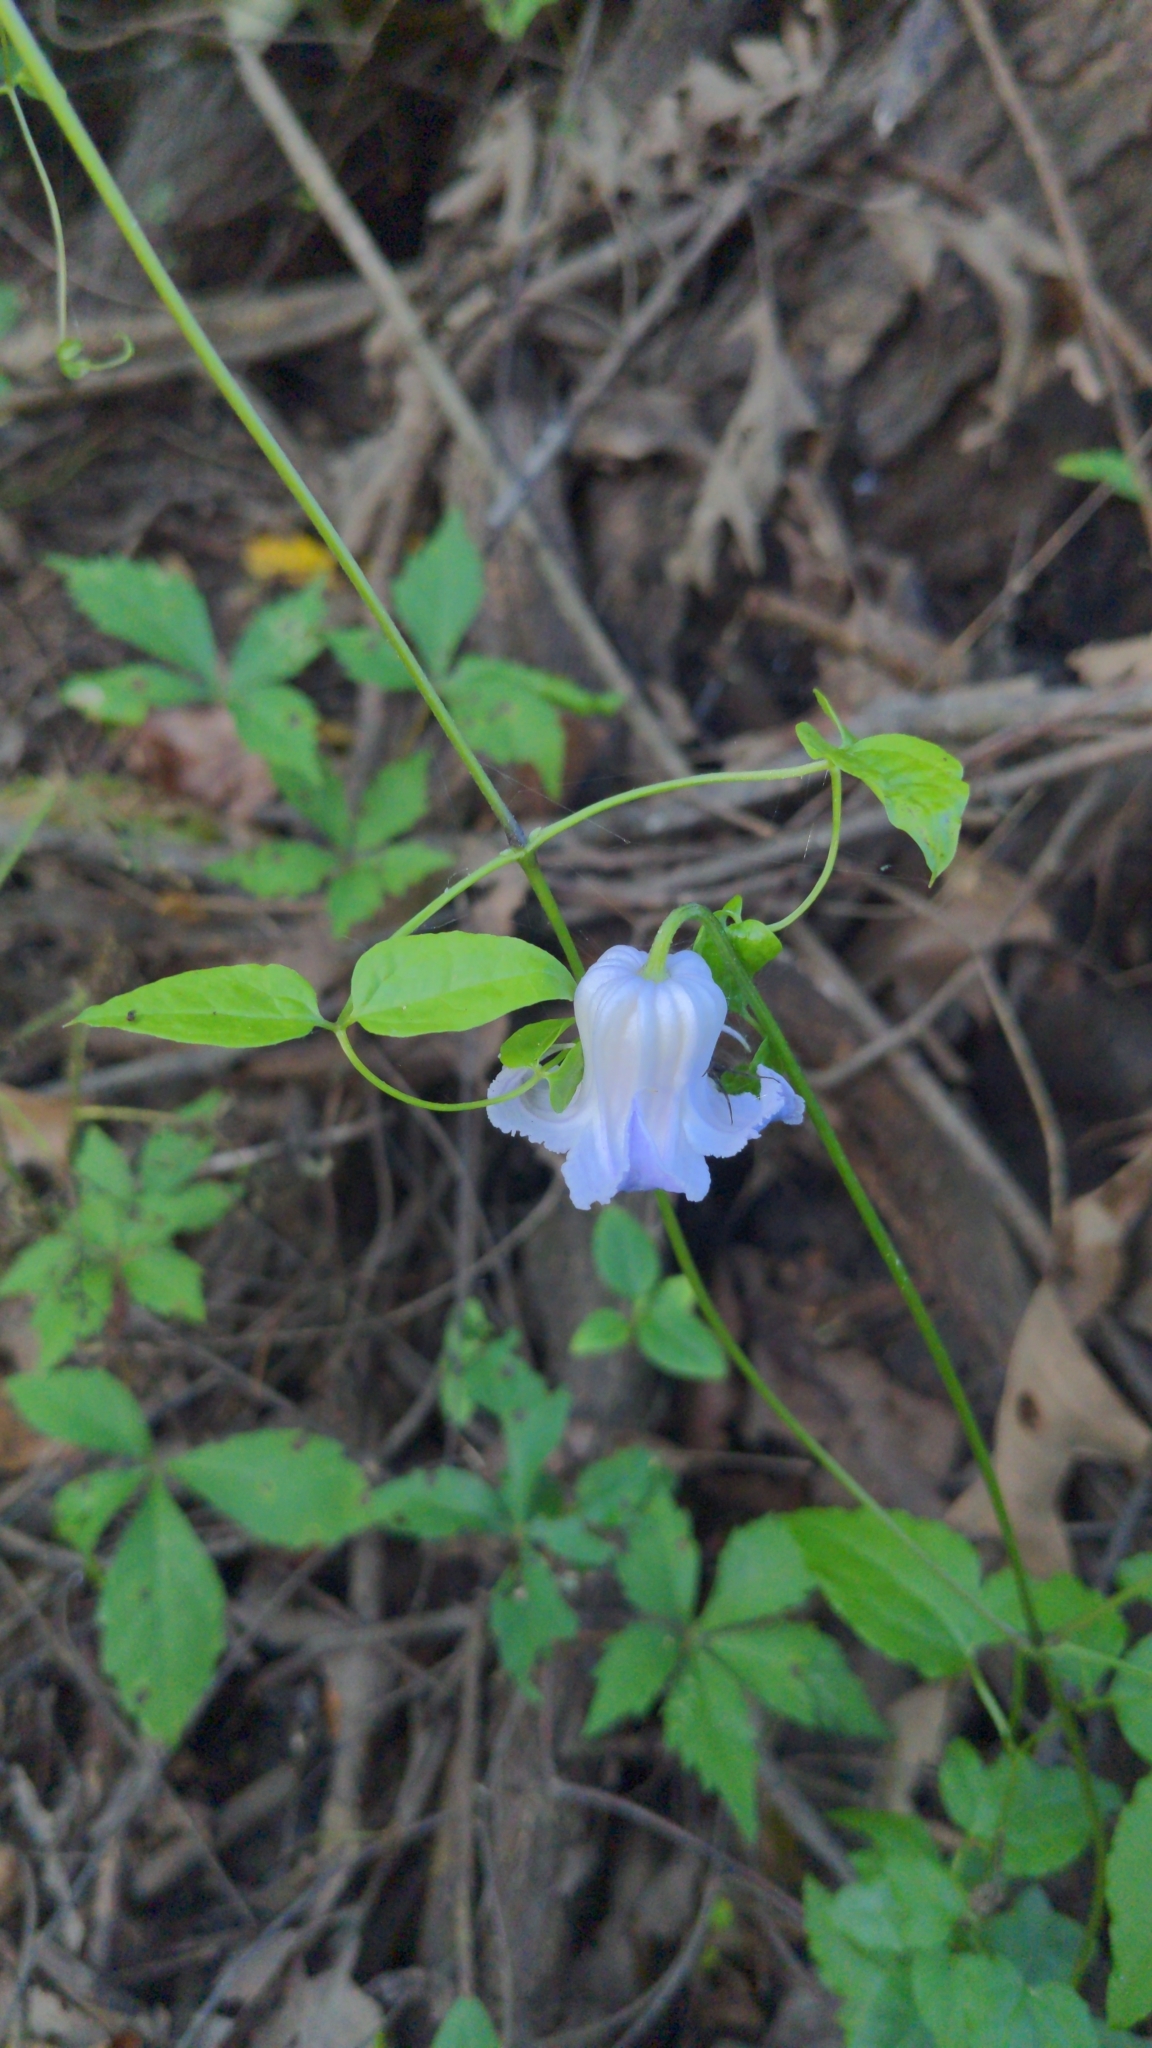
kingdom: Plantae
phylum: Tracheophyta
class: Magnoliopsida
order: Ranunculales
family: Ranunculaceae
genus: Clematis
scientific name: Clematis crispa
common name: Curly clematis
